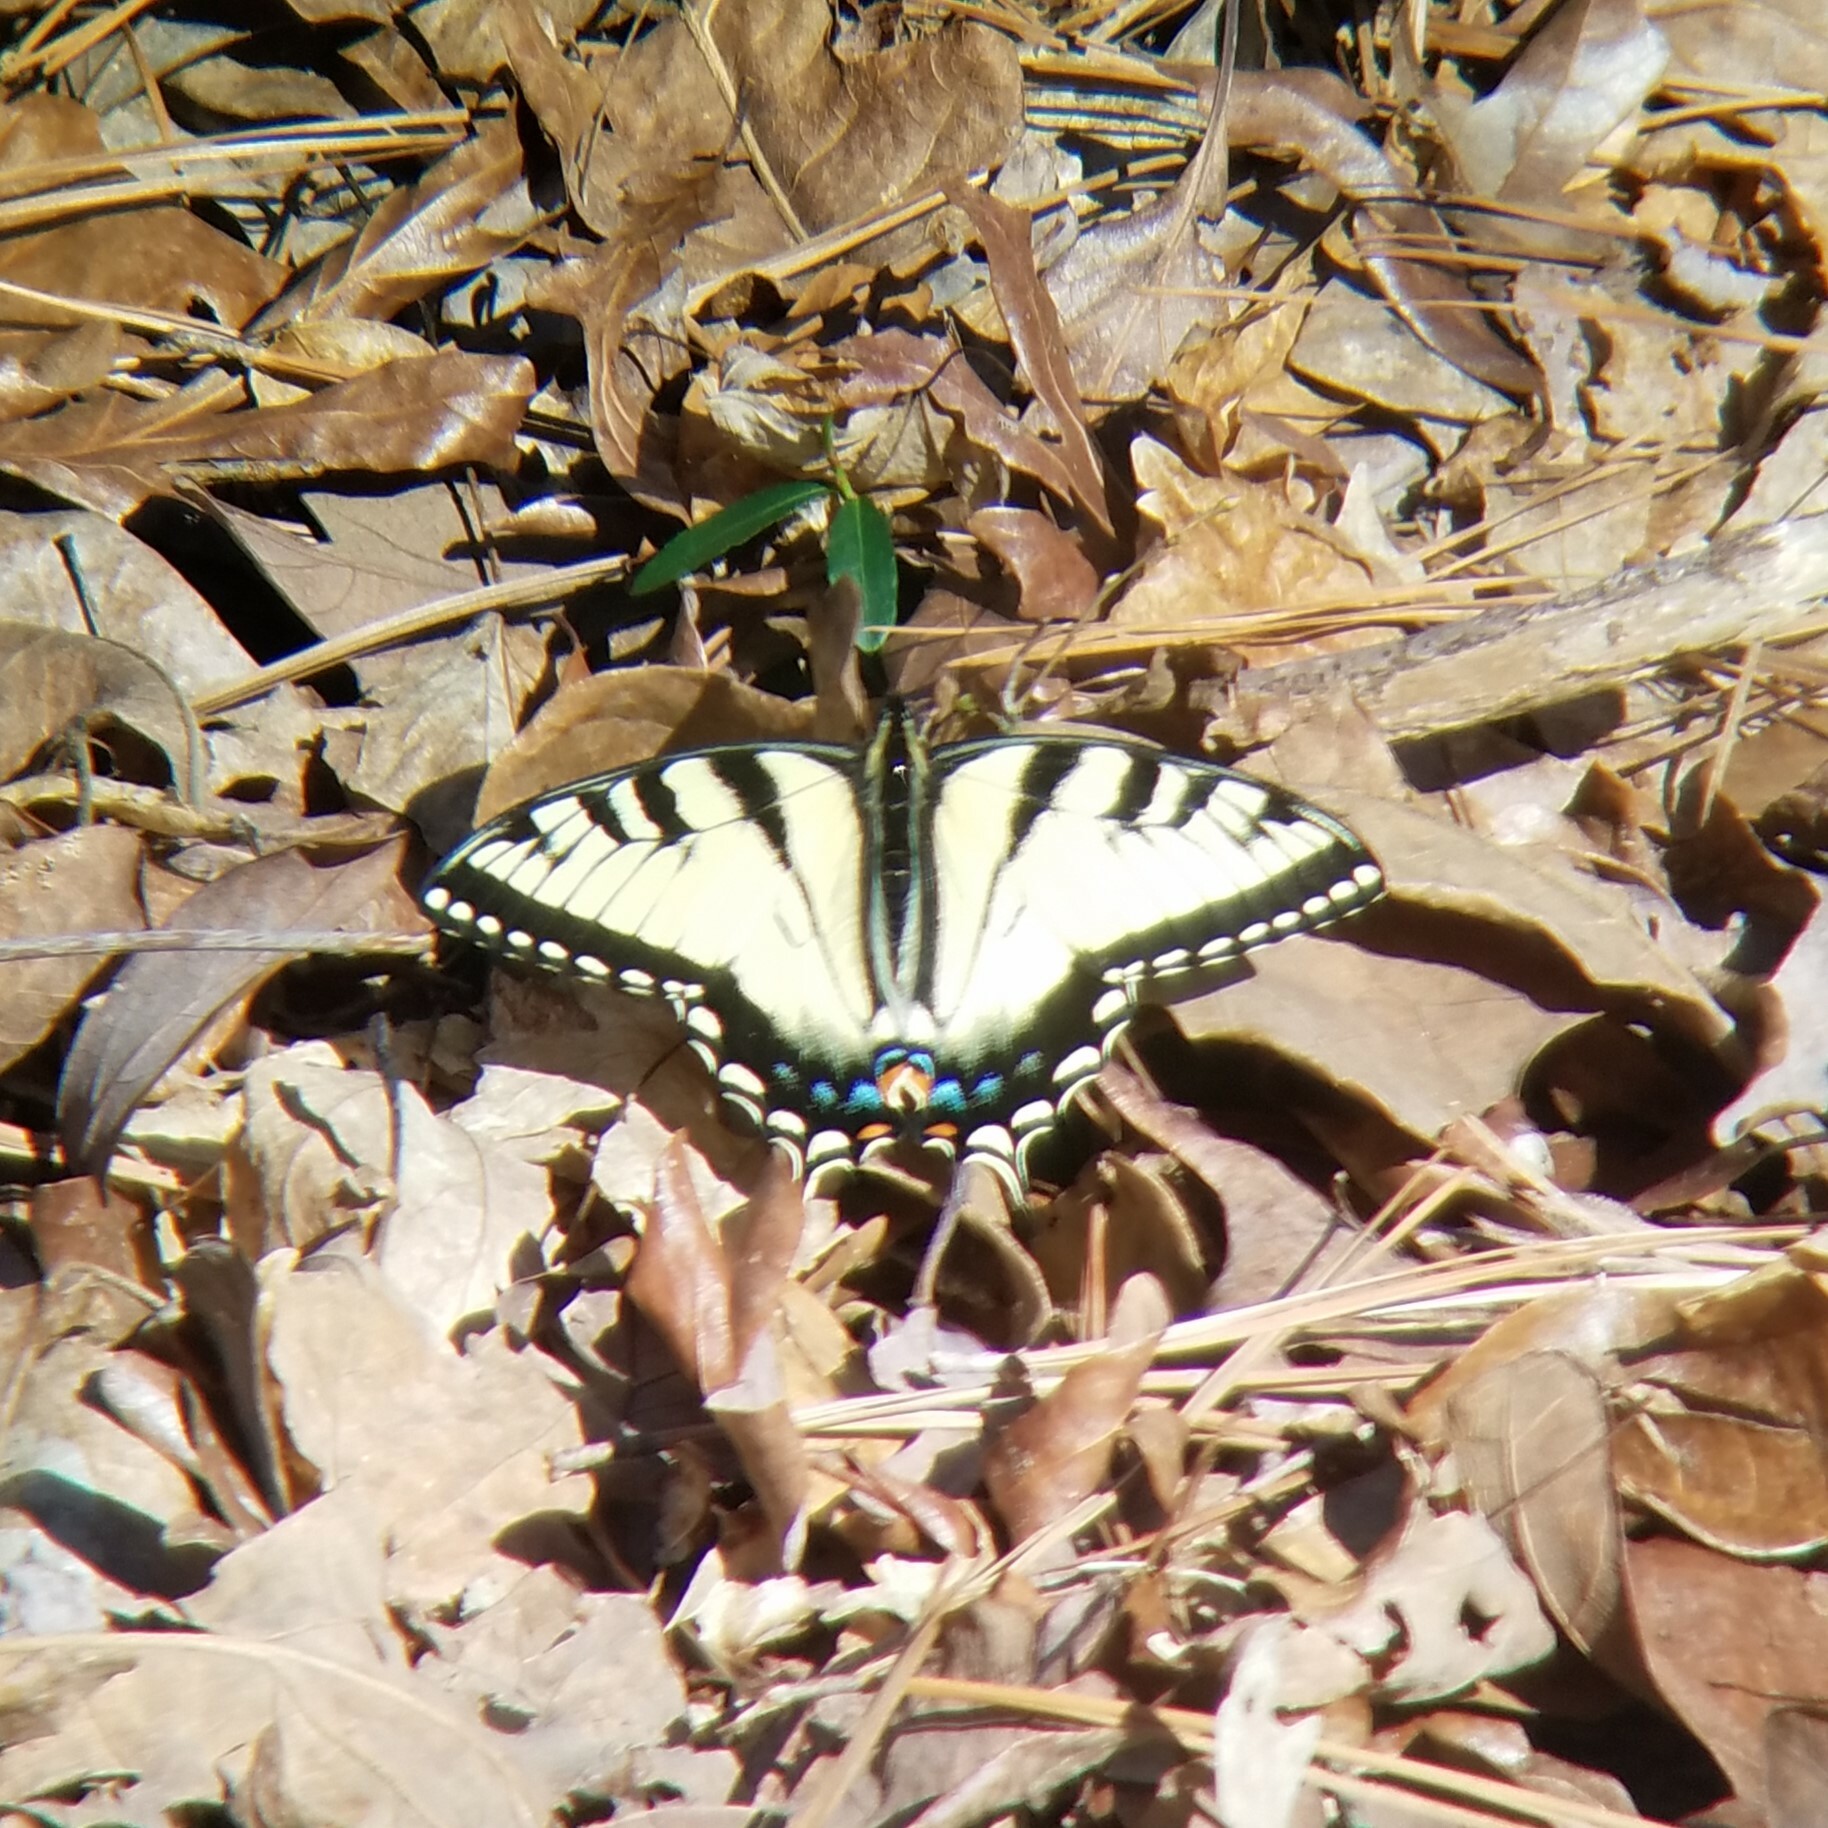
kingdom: Animalia
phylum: Arthropoda
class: Insecta
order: Lepidoptera
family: Papilionidae
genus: Papilio
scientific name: Papilio glaucus
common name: Tiger swallowtail
